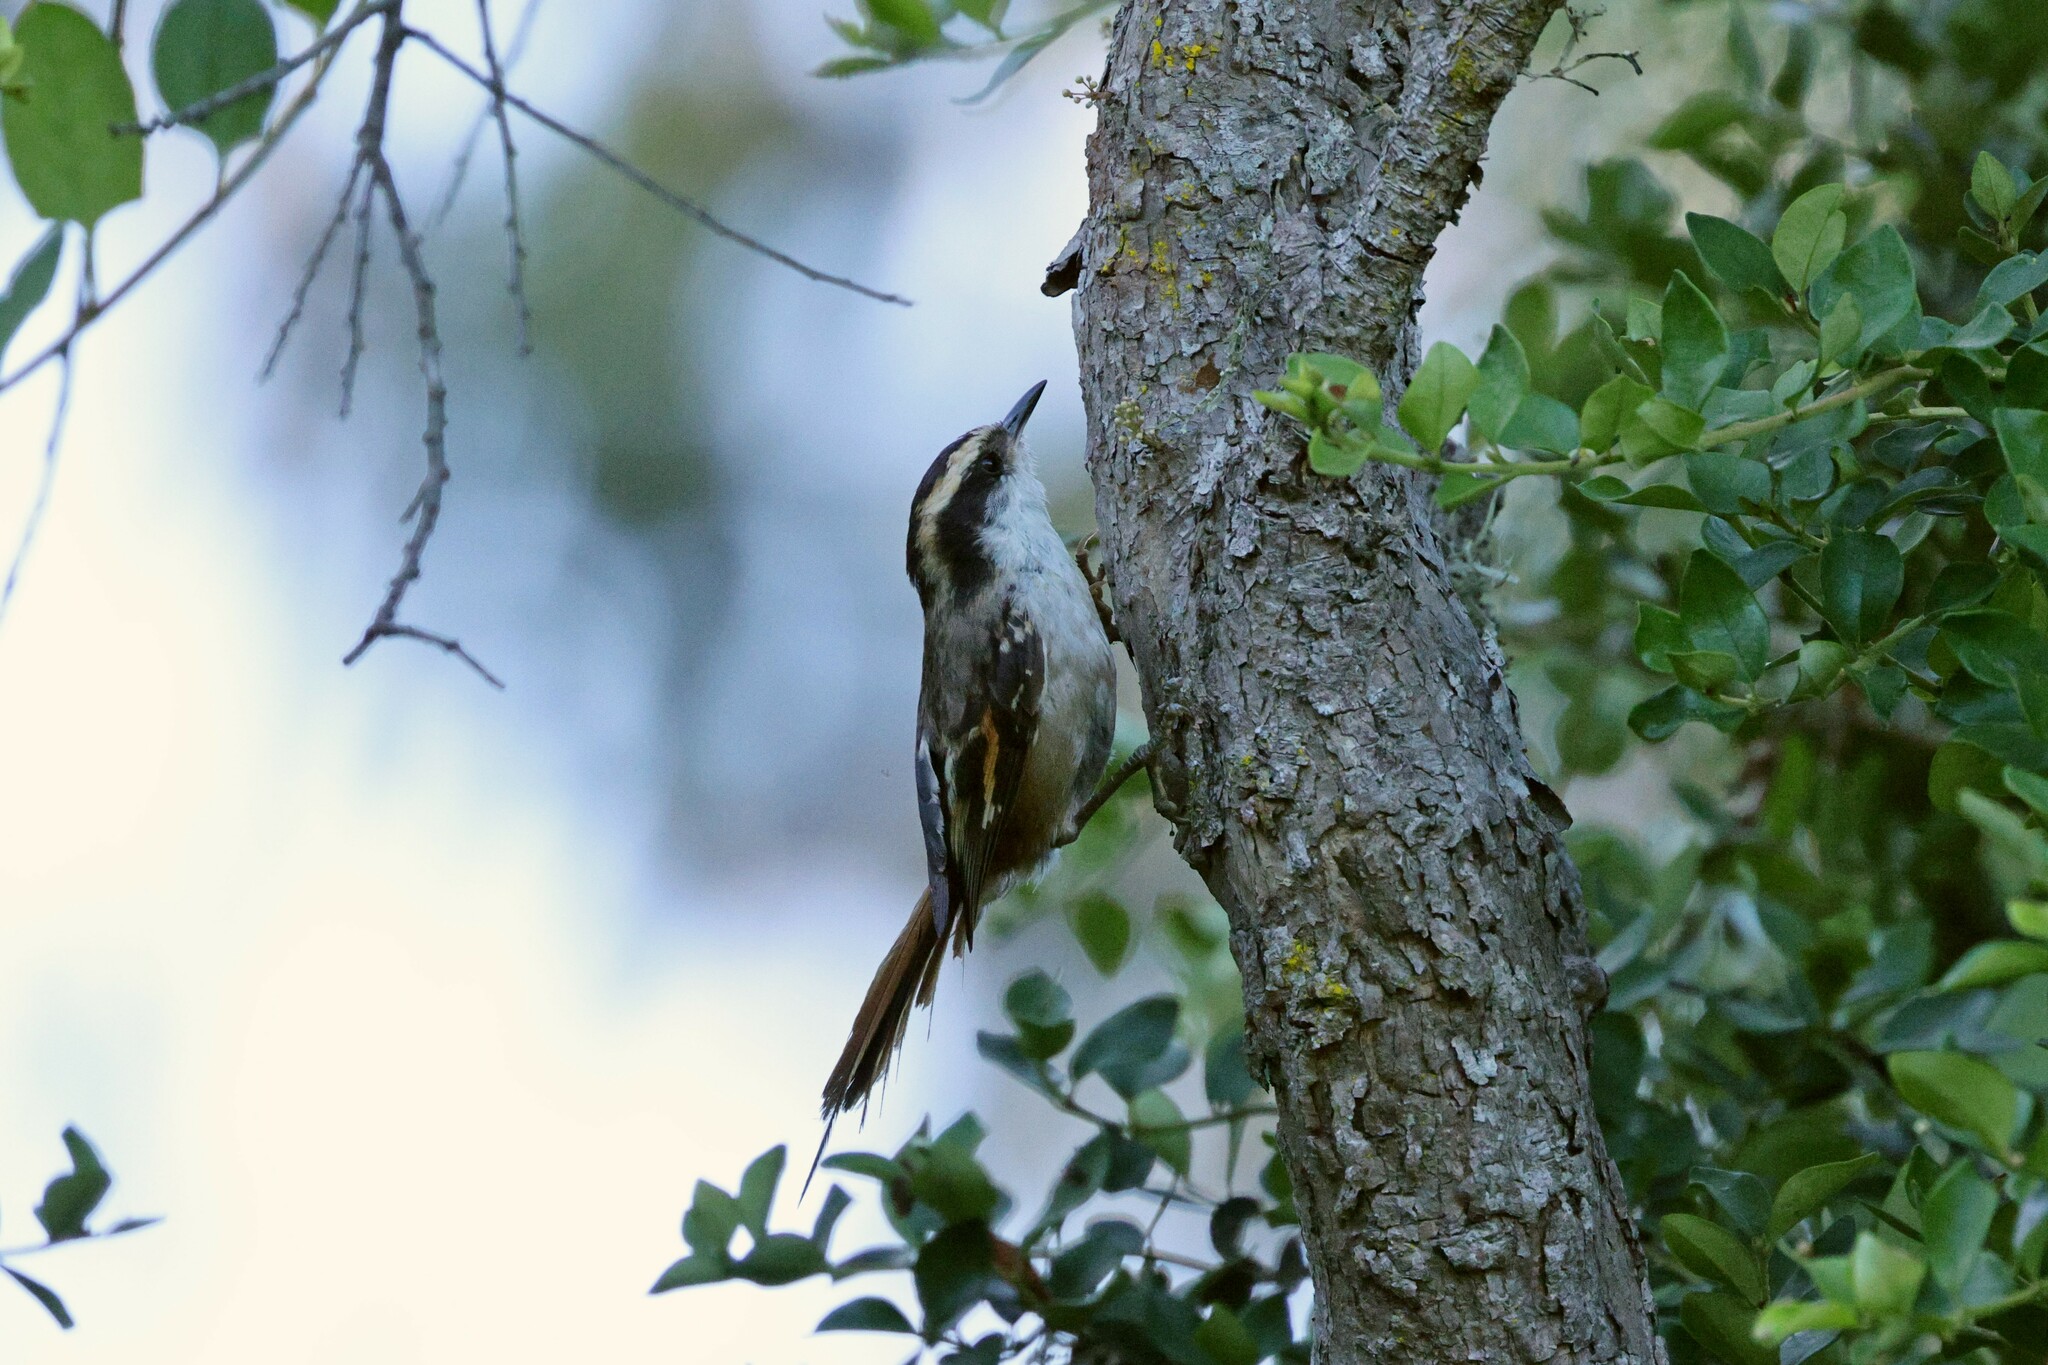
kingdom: Animalia
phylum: Chordata
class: Aves
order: Passeriformes
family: Furnariidae
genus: Aphrastura
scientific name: Aphrastura spinicauda
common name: Thorn-tailed rayadito
